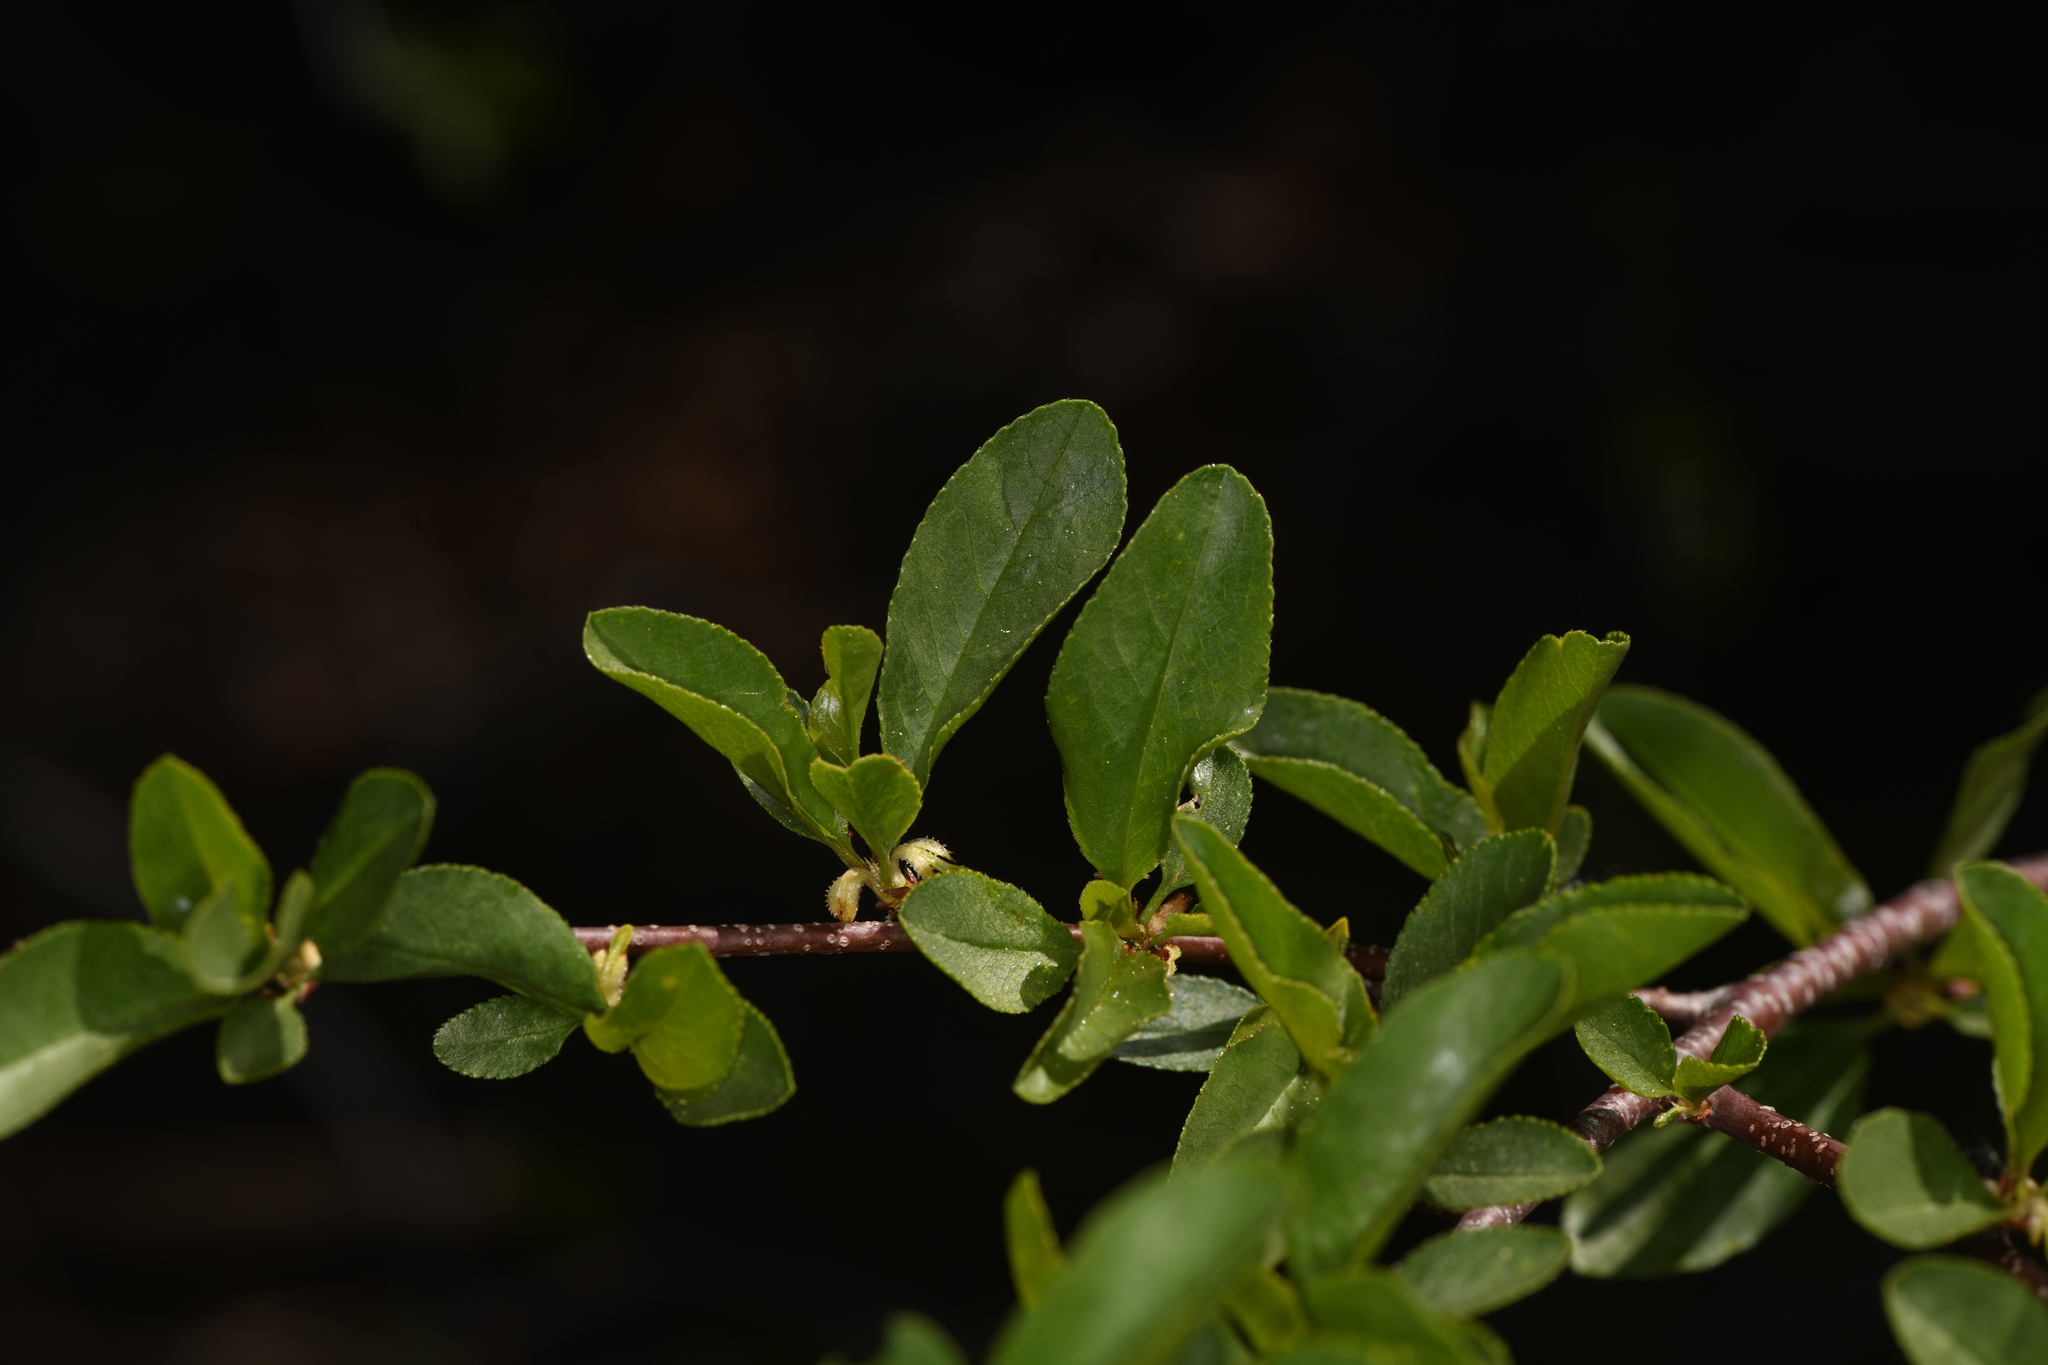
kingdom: Plantae
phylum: Tracheophyta
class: Magnoliopsida
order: Rosales
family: Rosaceae
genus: Prunus
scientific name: Prunus emarginata
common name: Bitter cherry
